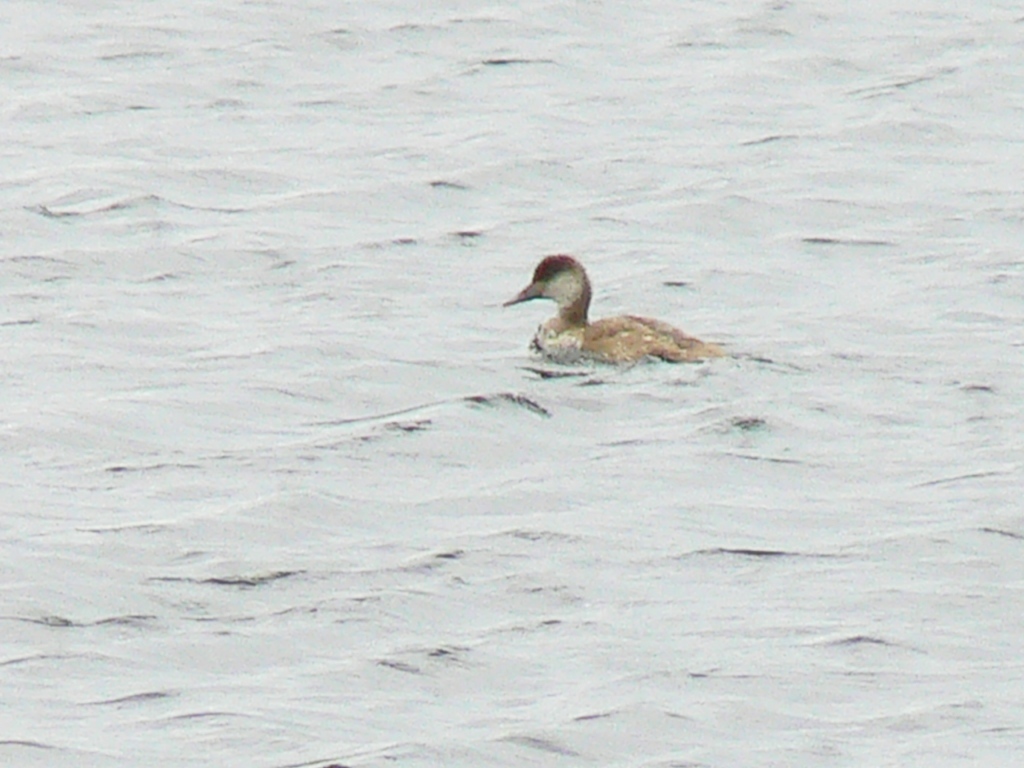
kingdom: Animalia
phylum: Chordata
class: Aves
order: Anseriformes
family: Anatidae
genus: Netta
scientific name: Netta rufina
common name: Red-crested pochard
